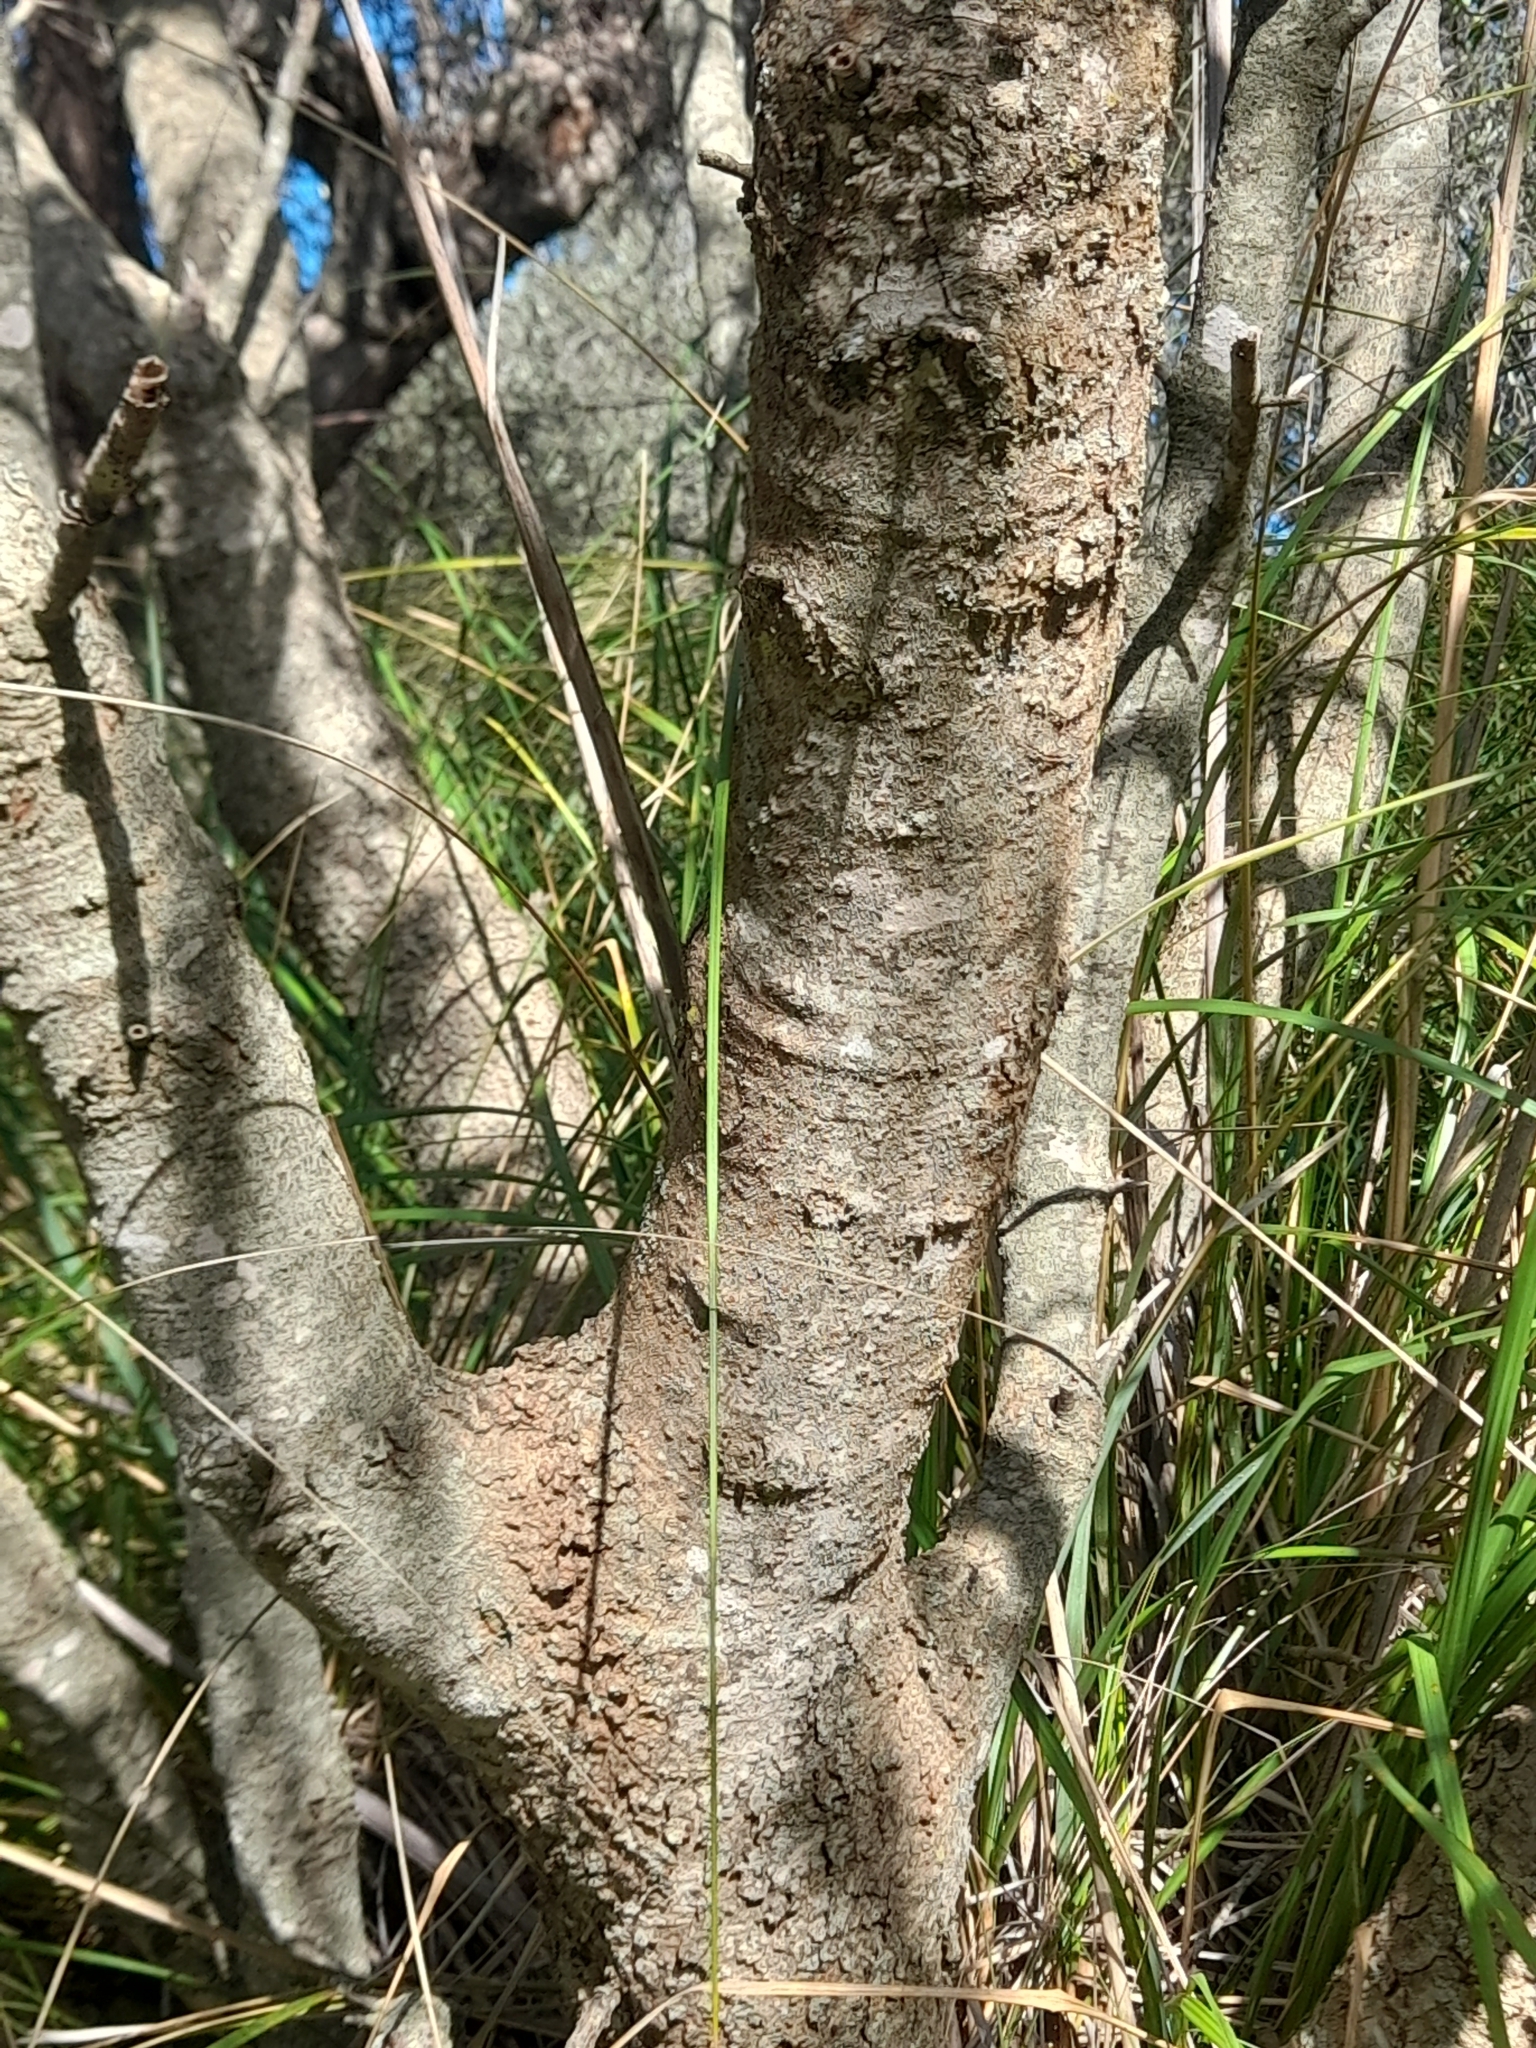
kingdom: Plantae
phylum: Tracheophyta
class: Magnoliopsida
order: Sapindales
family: Anacardiaceae
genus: Pistacia
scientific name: Pistacia terebinthus
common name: Terebinth
